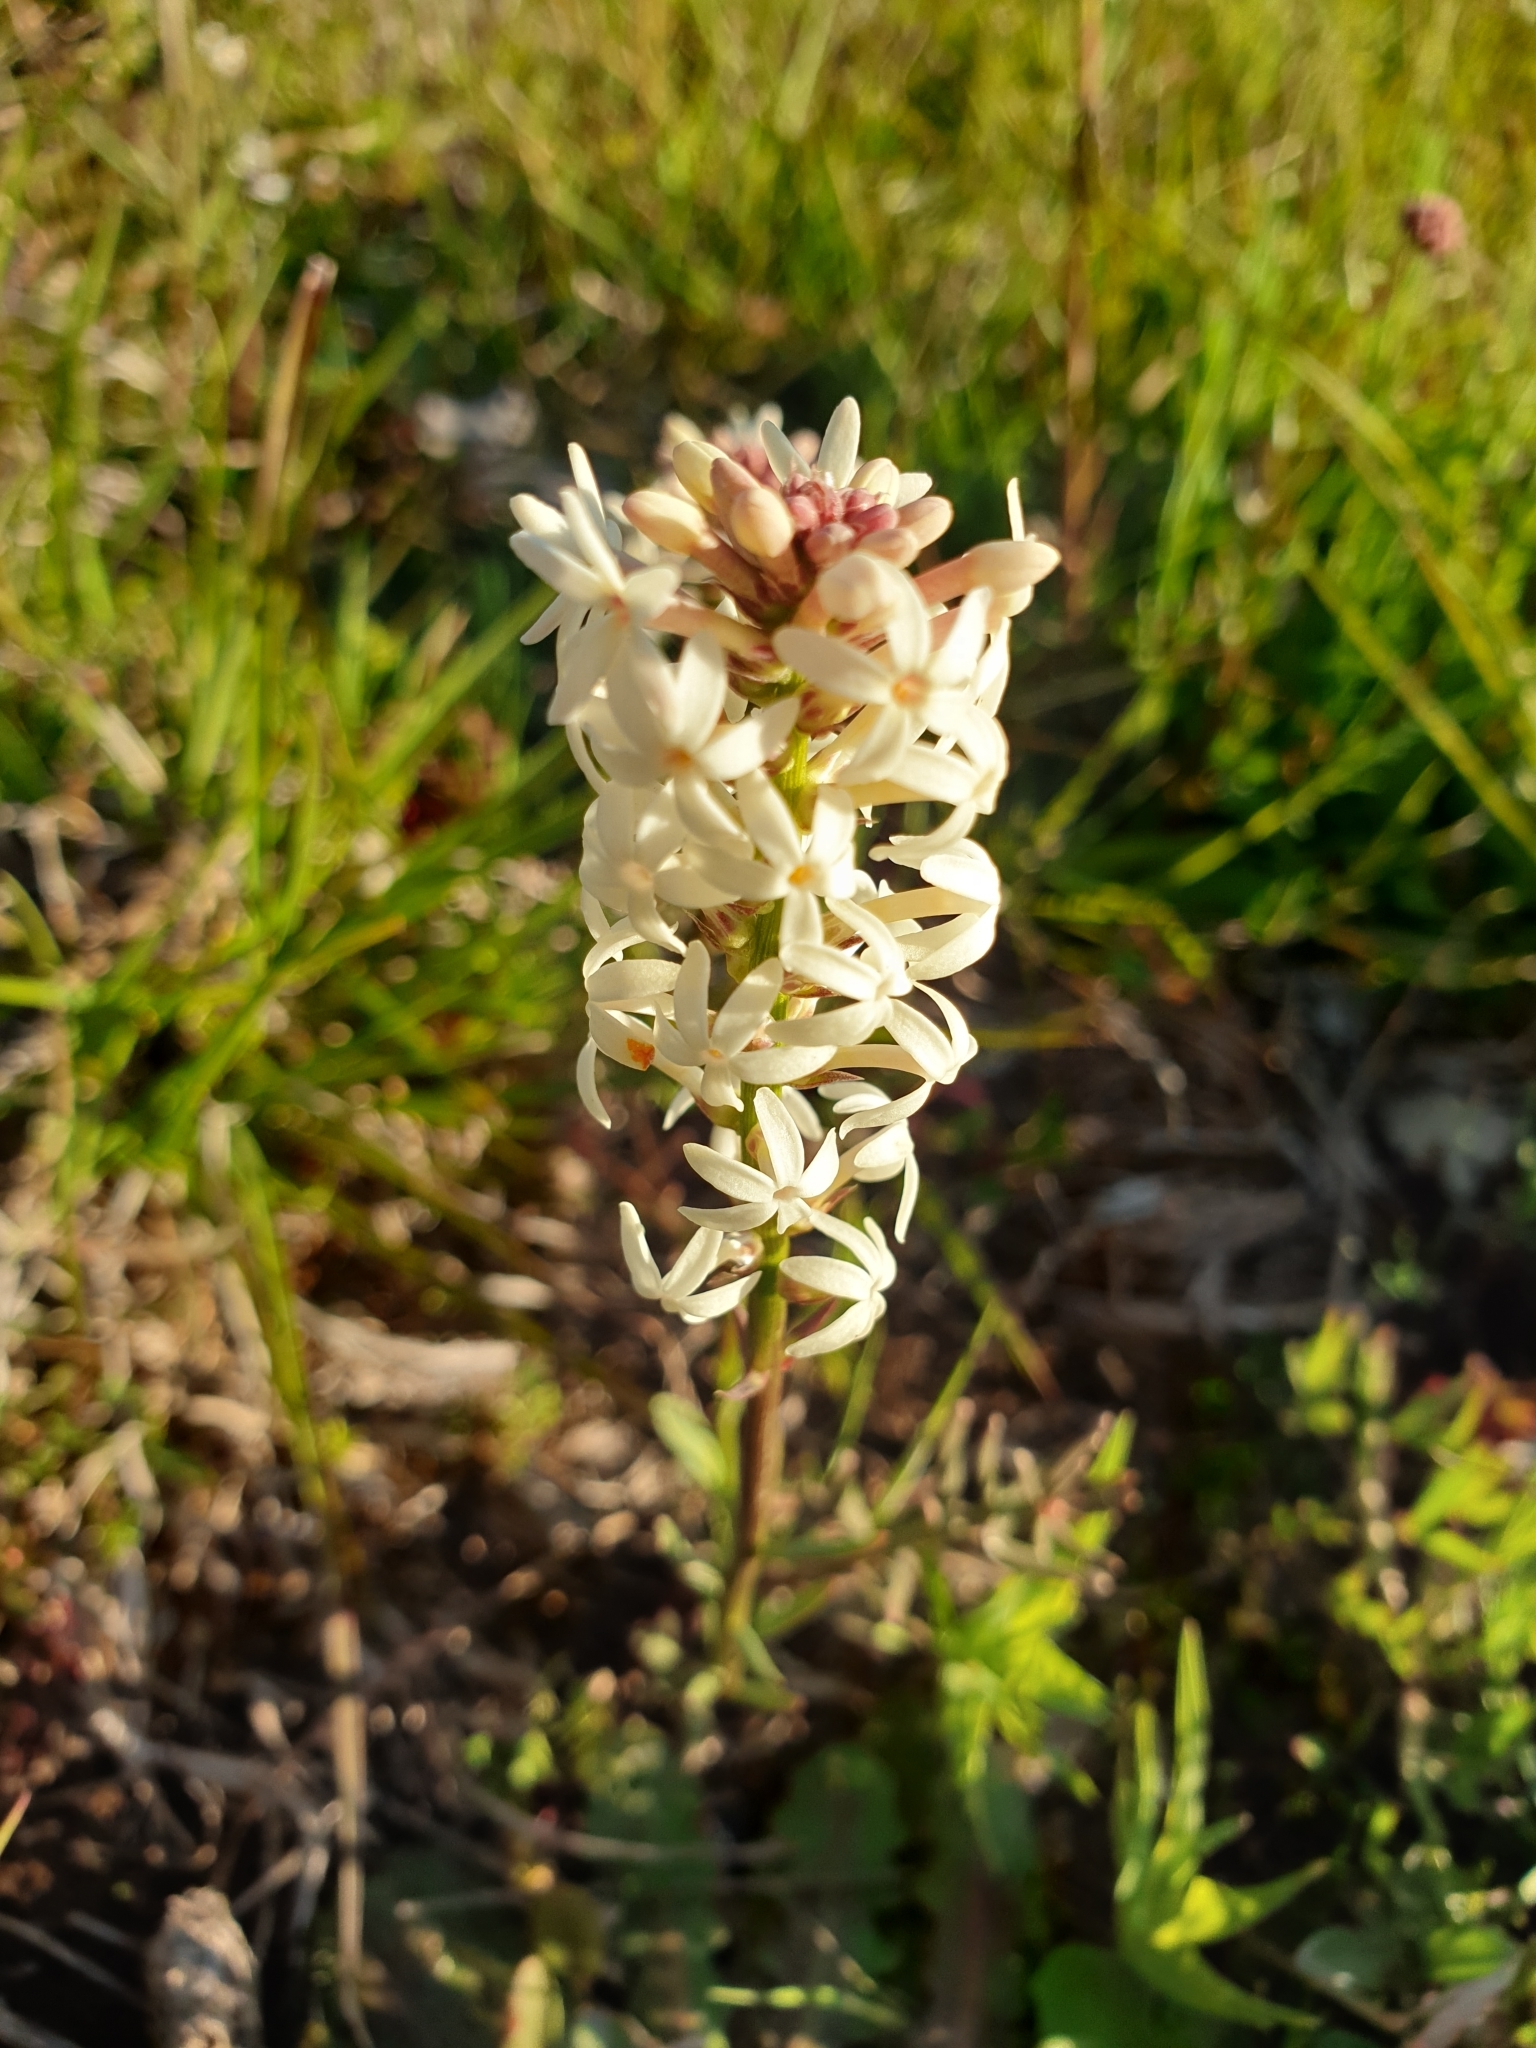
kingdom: Plantae
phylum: Tracheophyta
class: Magnoliopsida
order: Celastrales
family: Celastraceae
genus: Stackhousia
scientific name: Stackhousia monogyna
